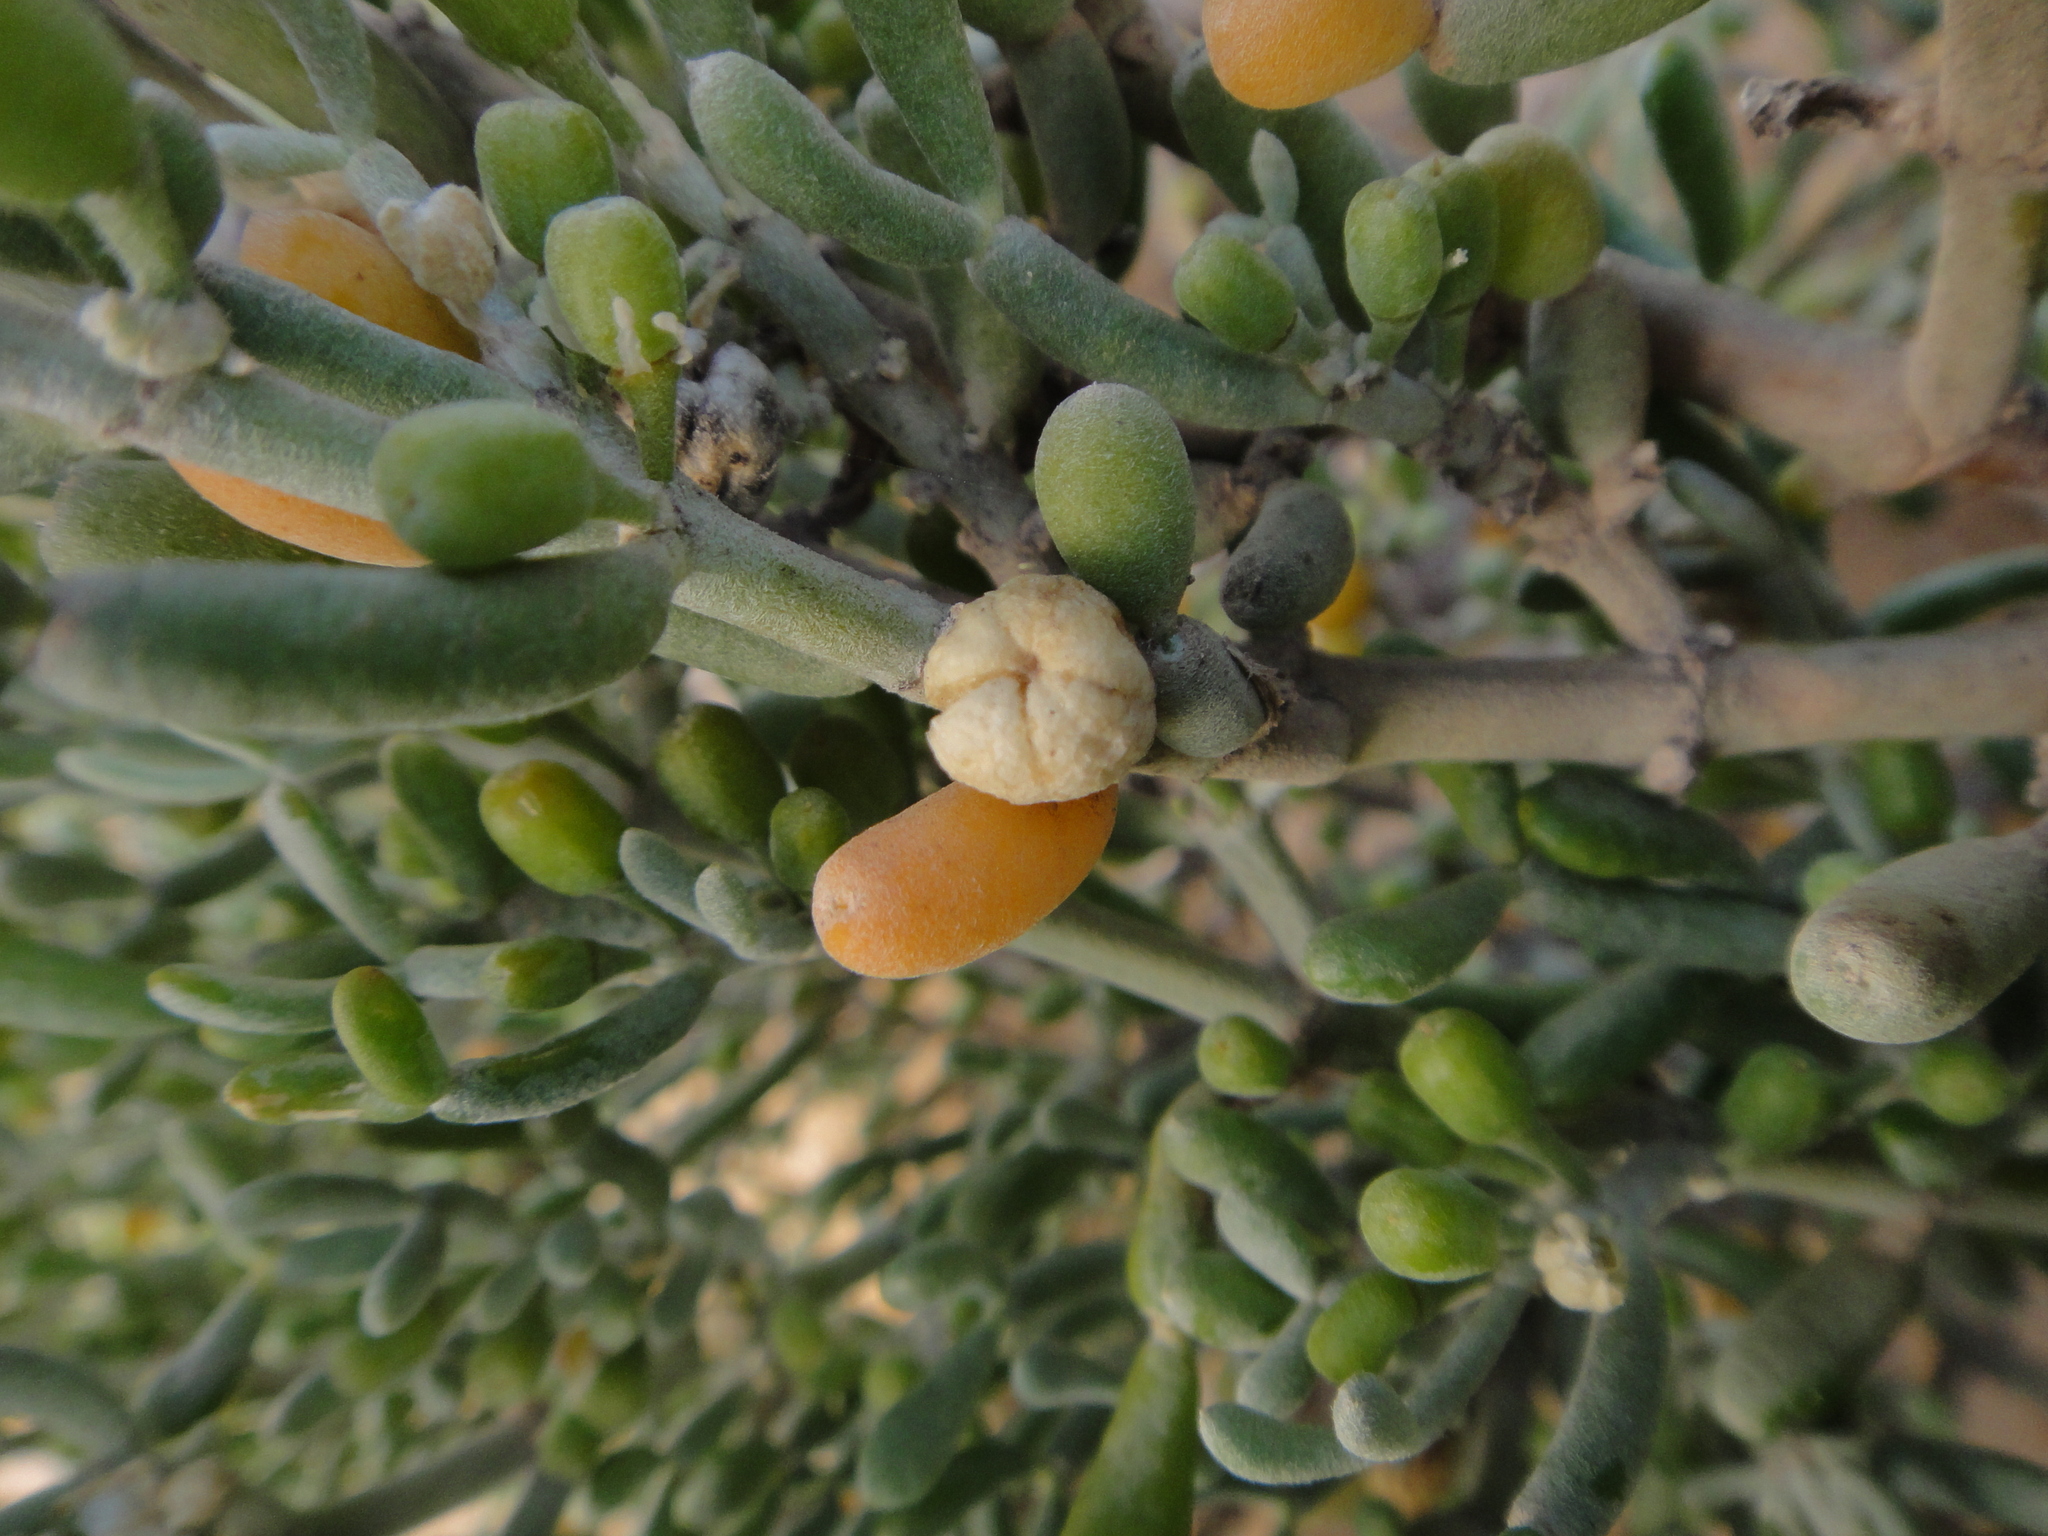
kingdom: Plantae
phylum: Tracheophyta
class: Magnoliopsida
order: Zygophyllales
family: Zygophyllaceae
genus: Tetraena
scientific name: Tetraena fontanesii
